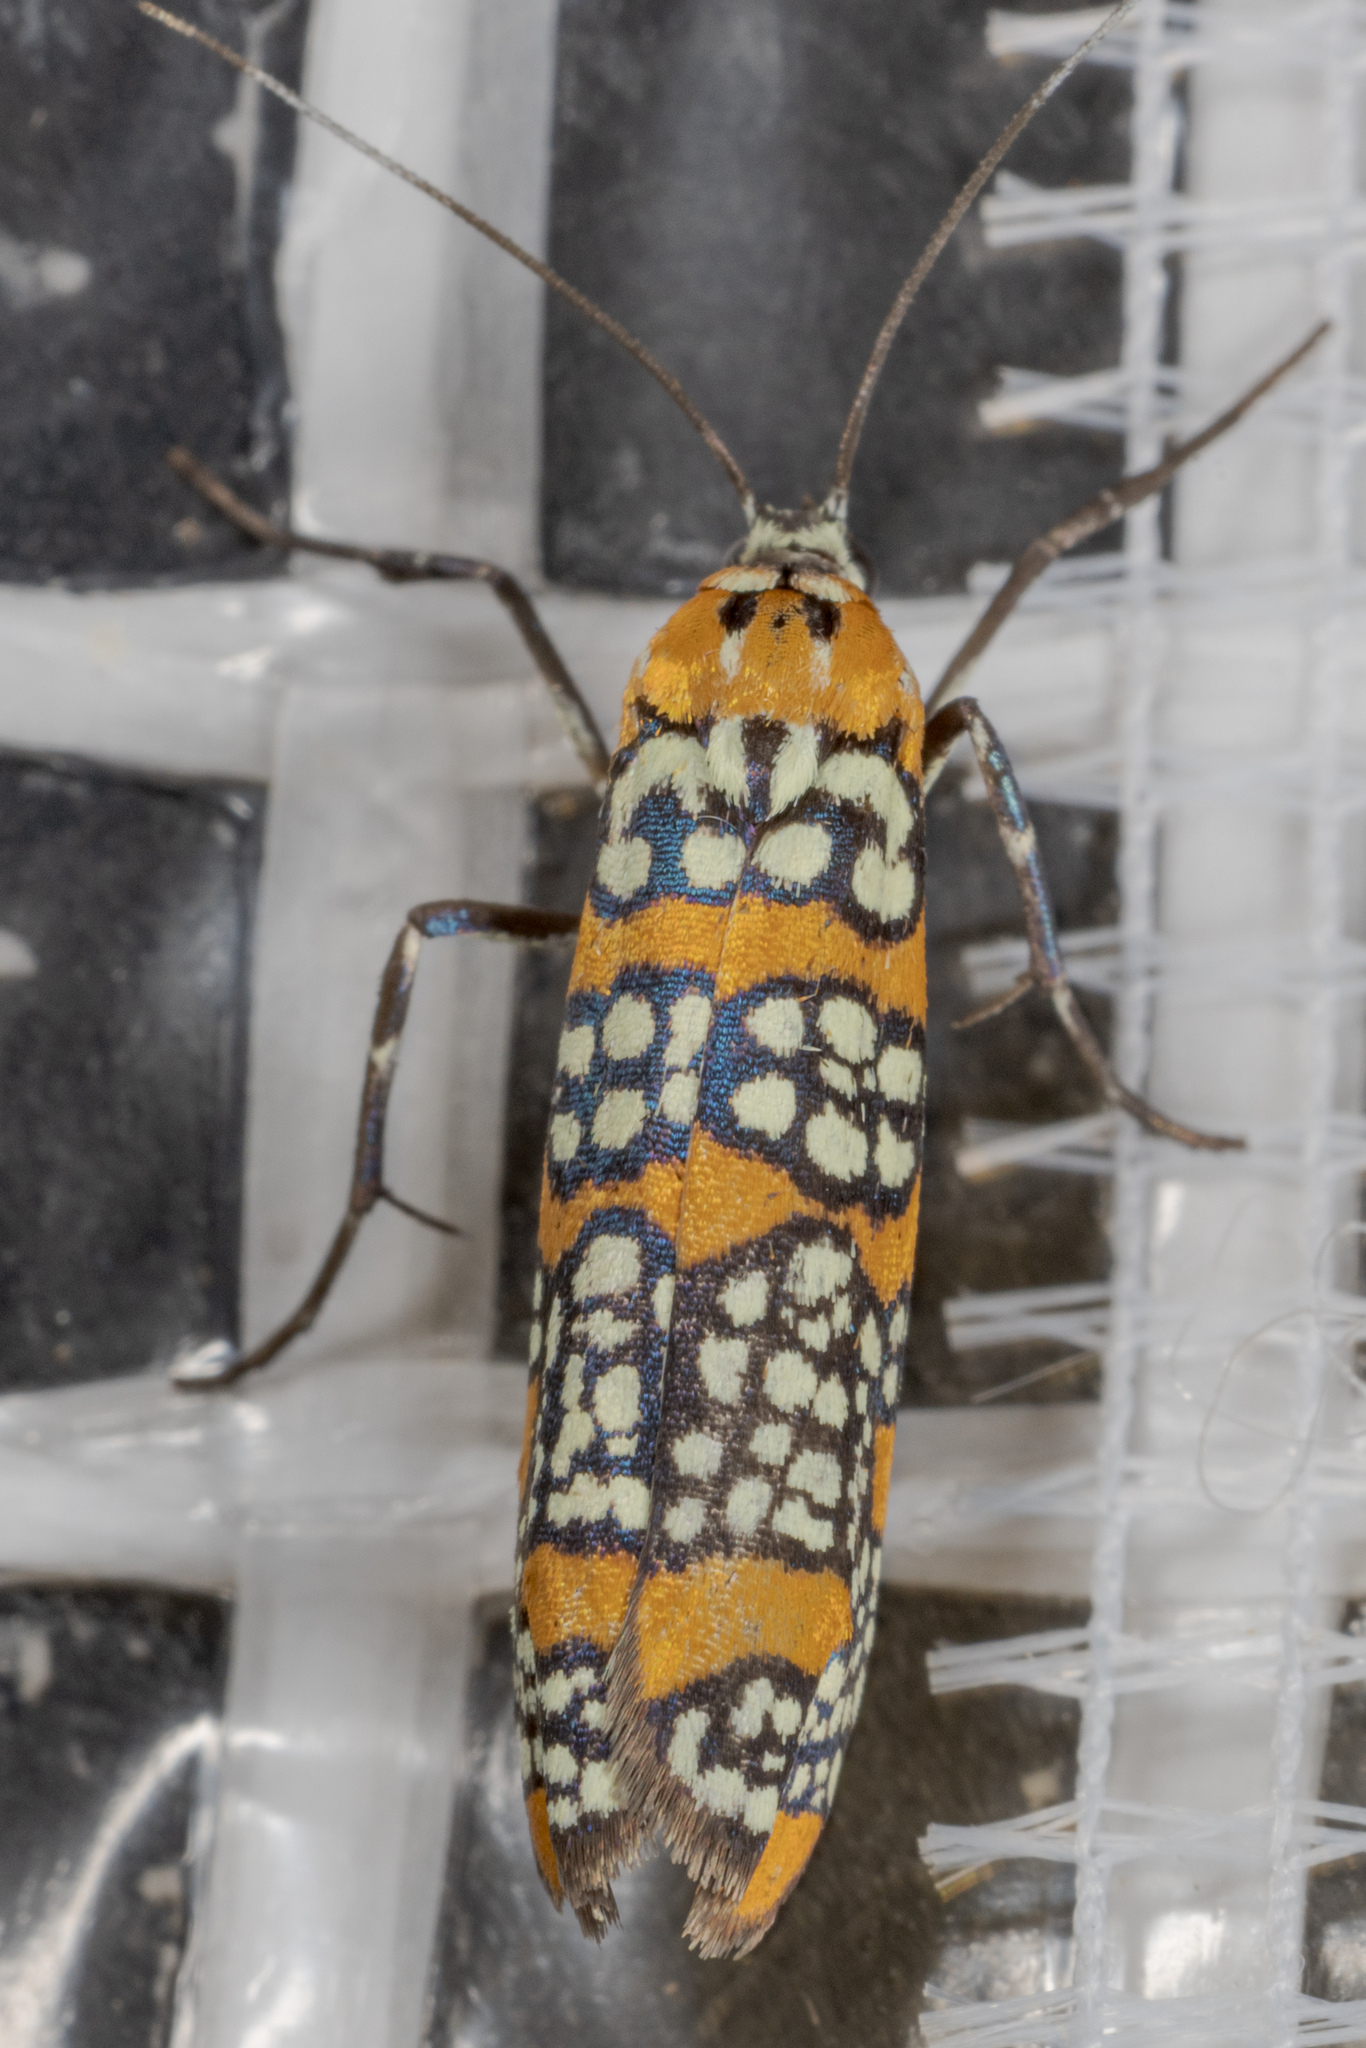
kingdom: Animalia
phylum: Arthropoda
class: Insecta
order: Lepidoptera
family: Attevidae
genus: Atteva
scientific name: Atteva punctella
